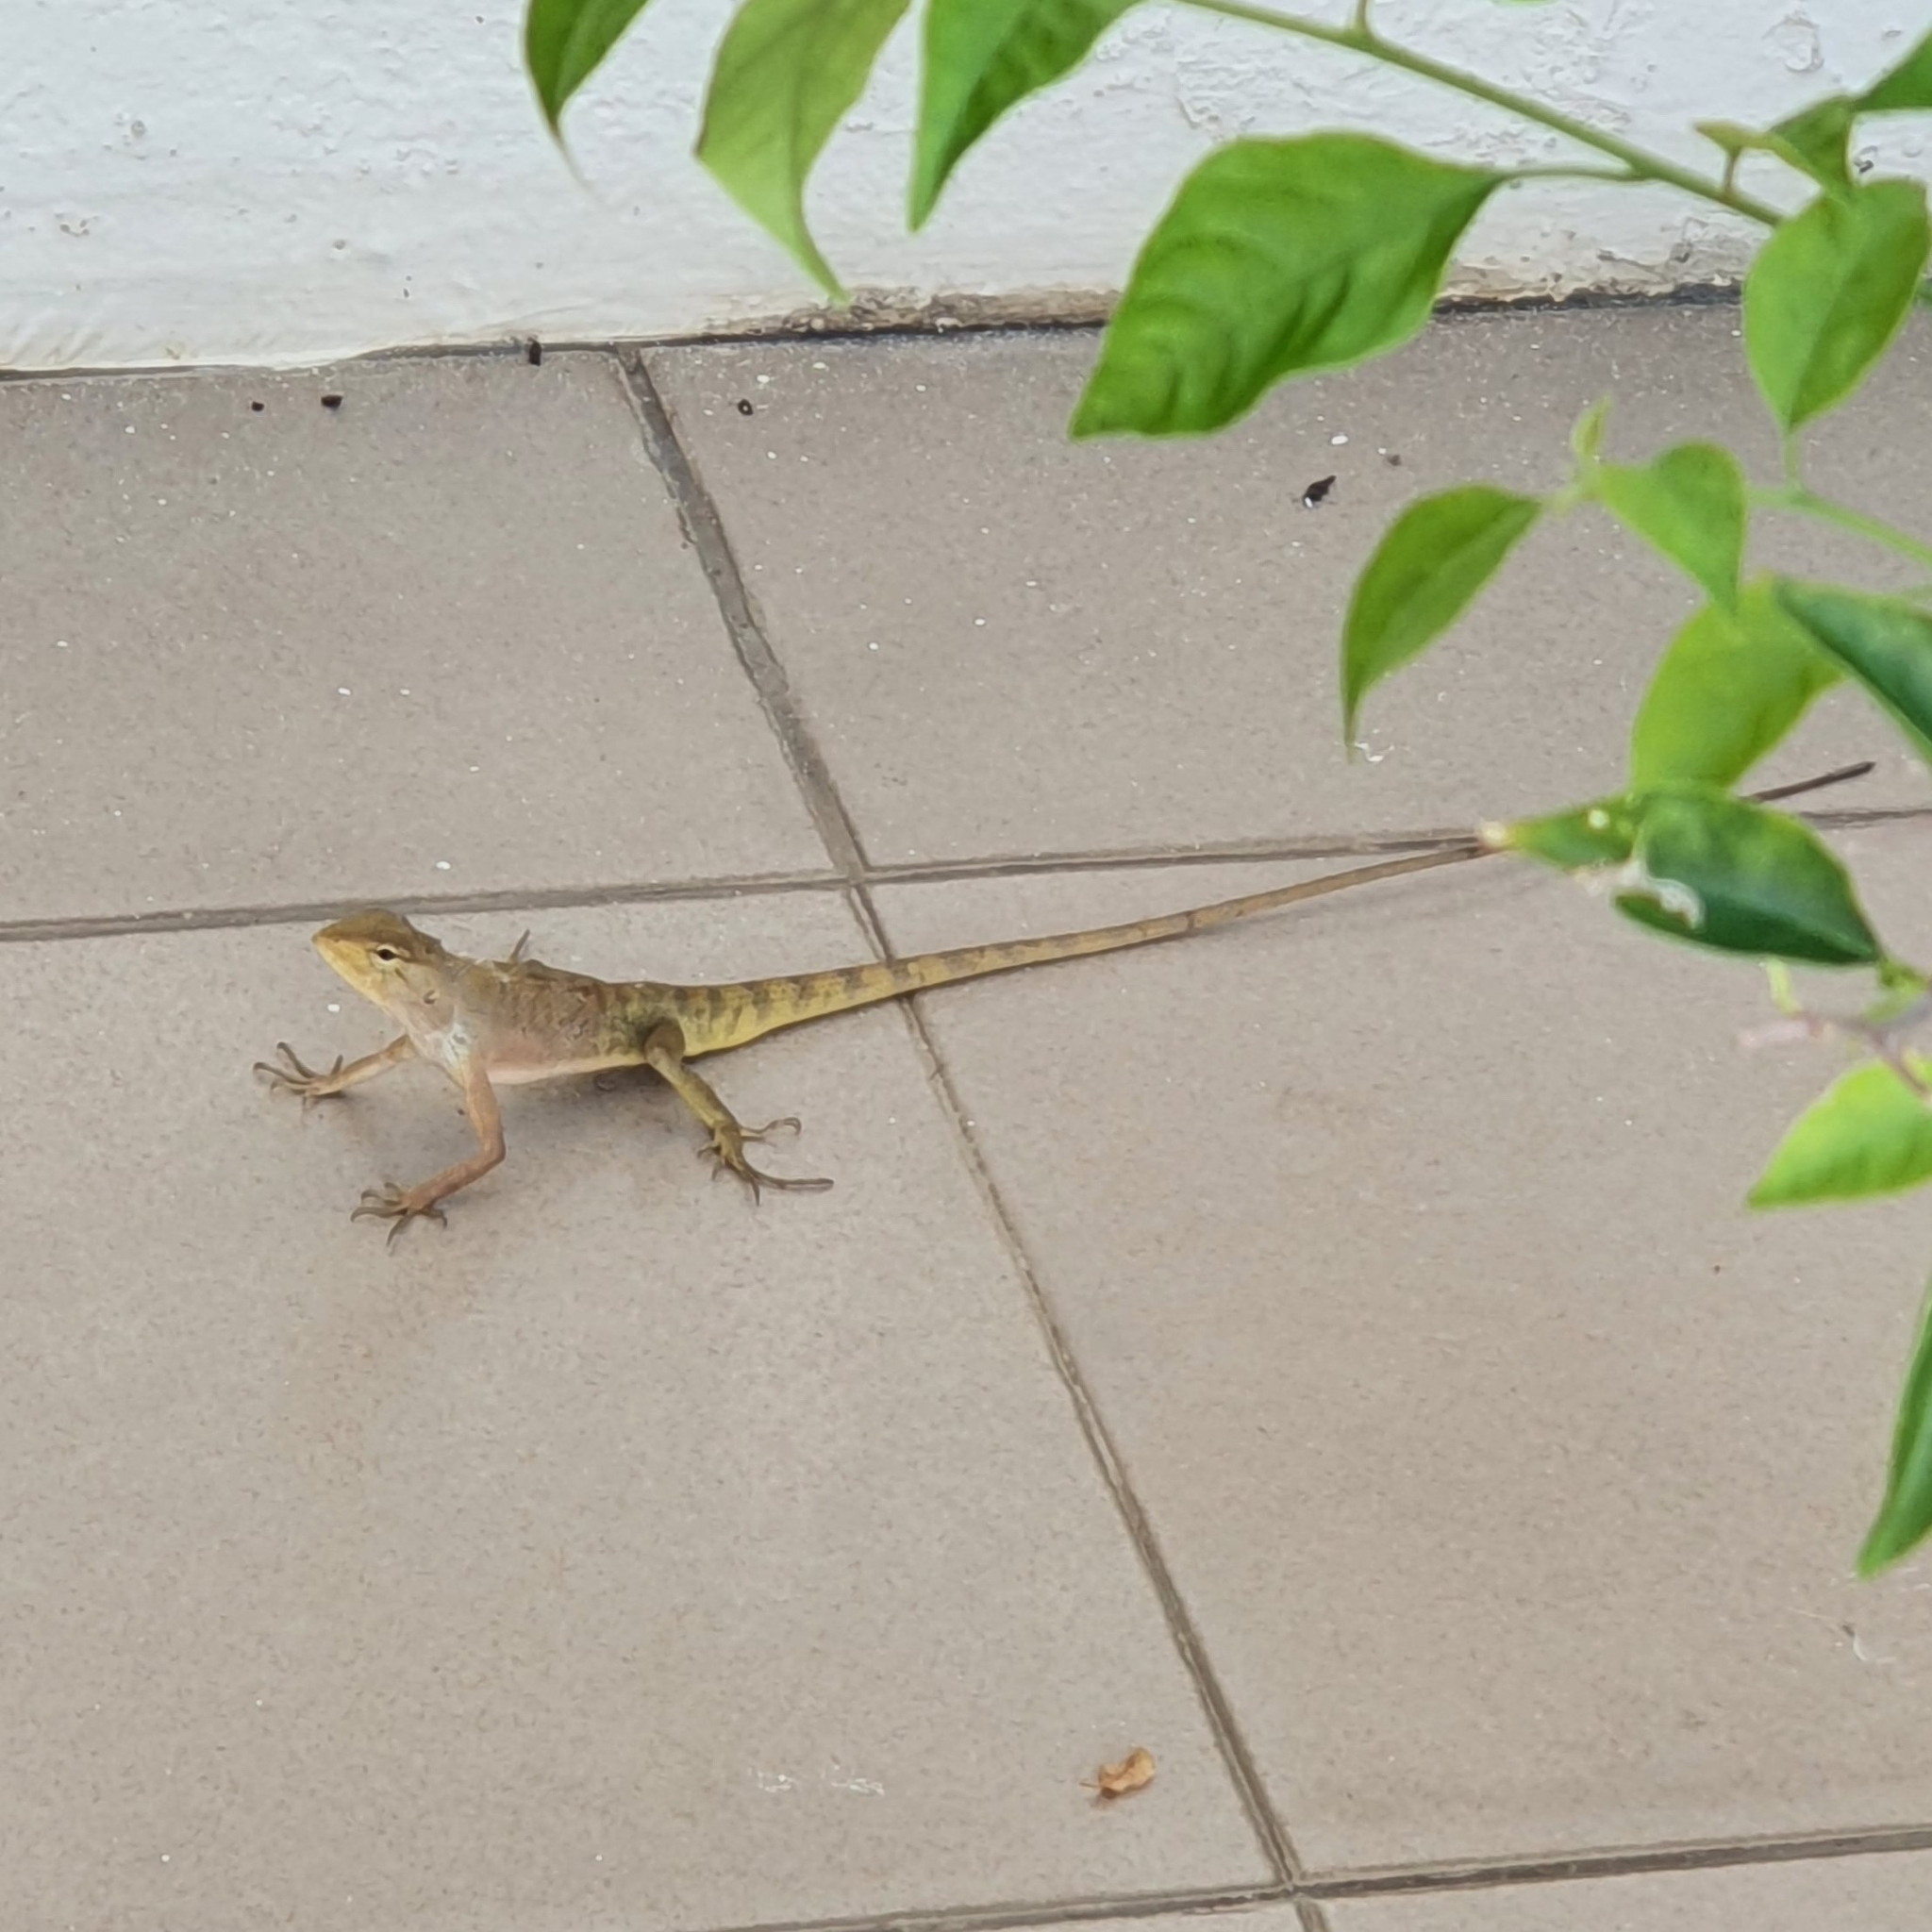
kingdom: Animalia
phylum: Chordata
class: Squamata
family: Agamidae
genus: Calotes
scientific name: Calotes versicolor
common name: Oriental garden lizard
